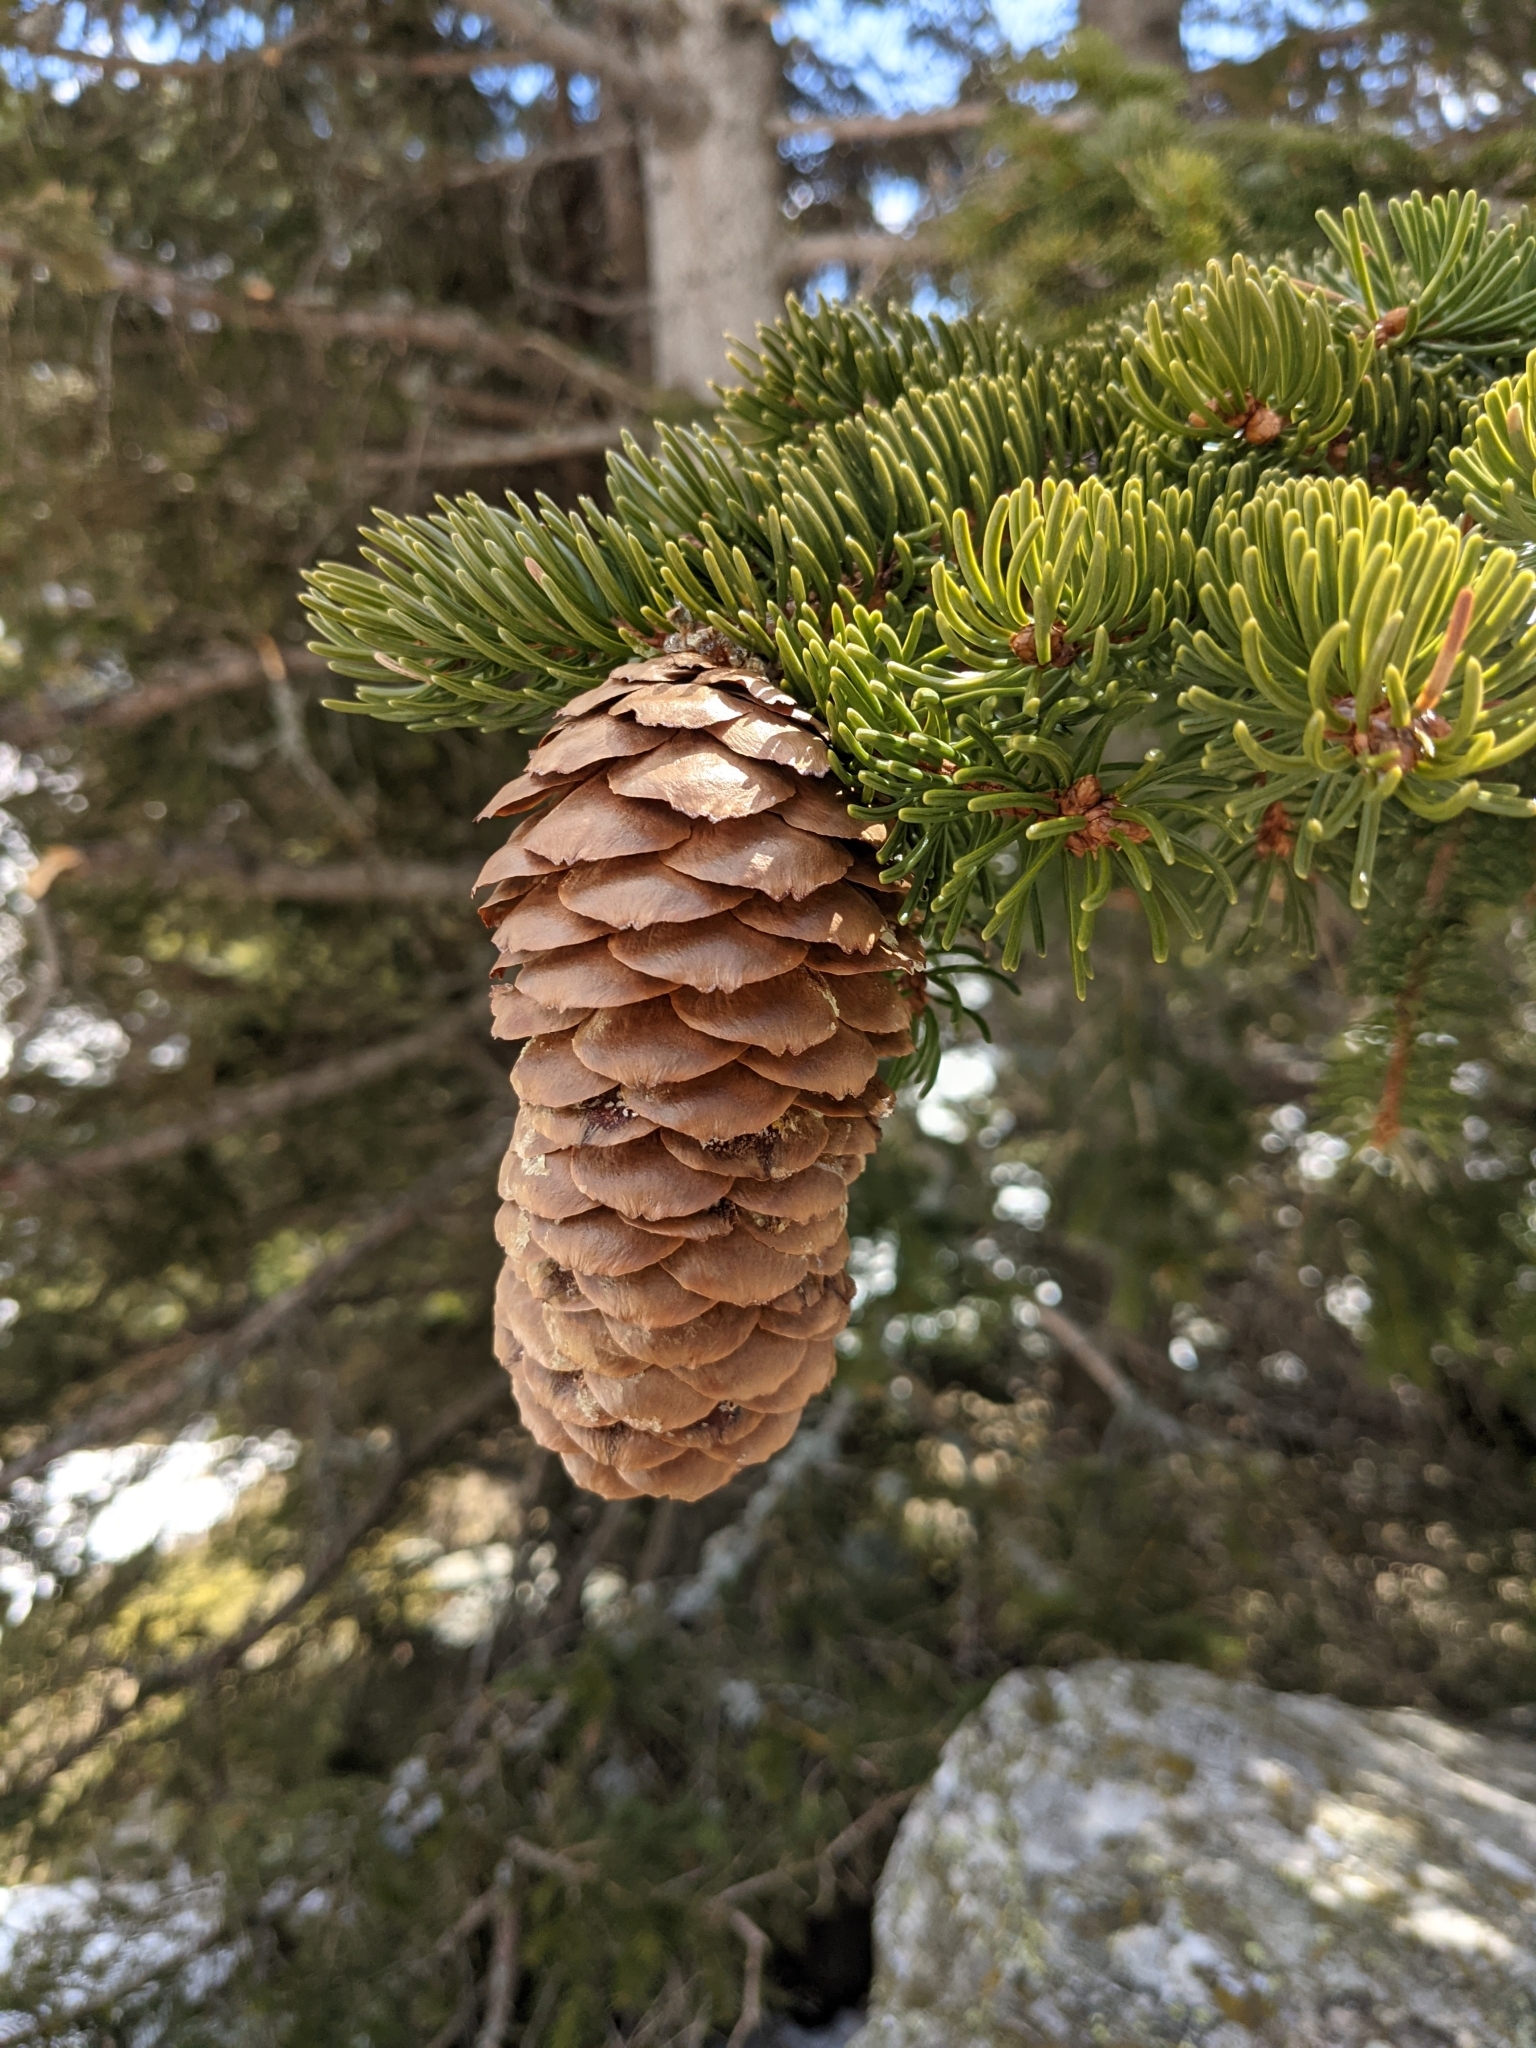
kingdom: Plantae
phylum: Tracheophyta
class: Pinopsida
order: Pinales
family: Pinaceae
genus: Picea
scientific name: Picea abies
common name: Norway spruce
